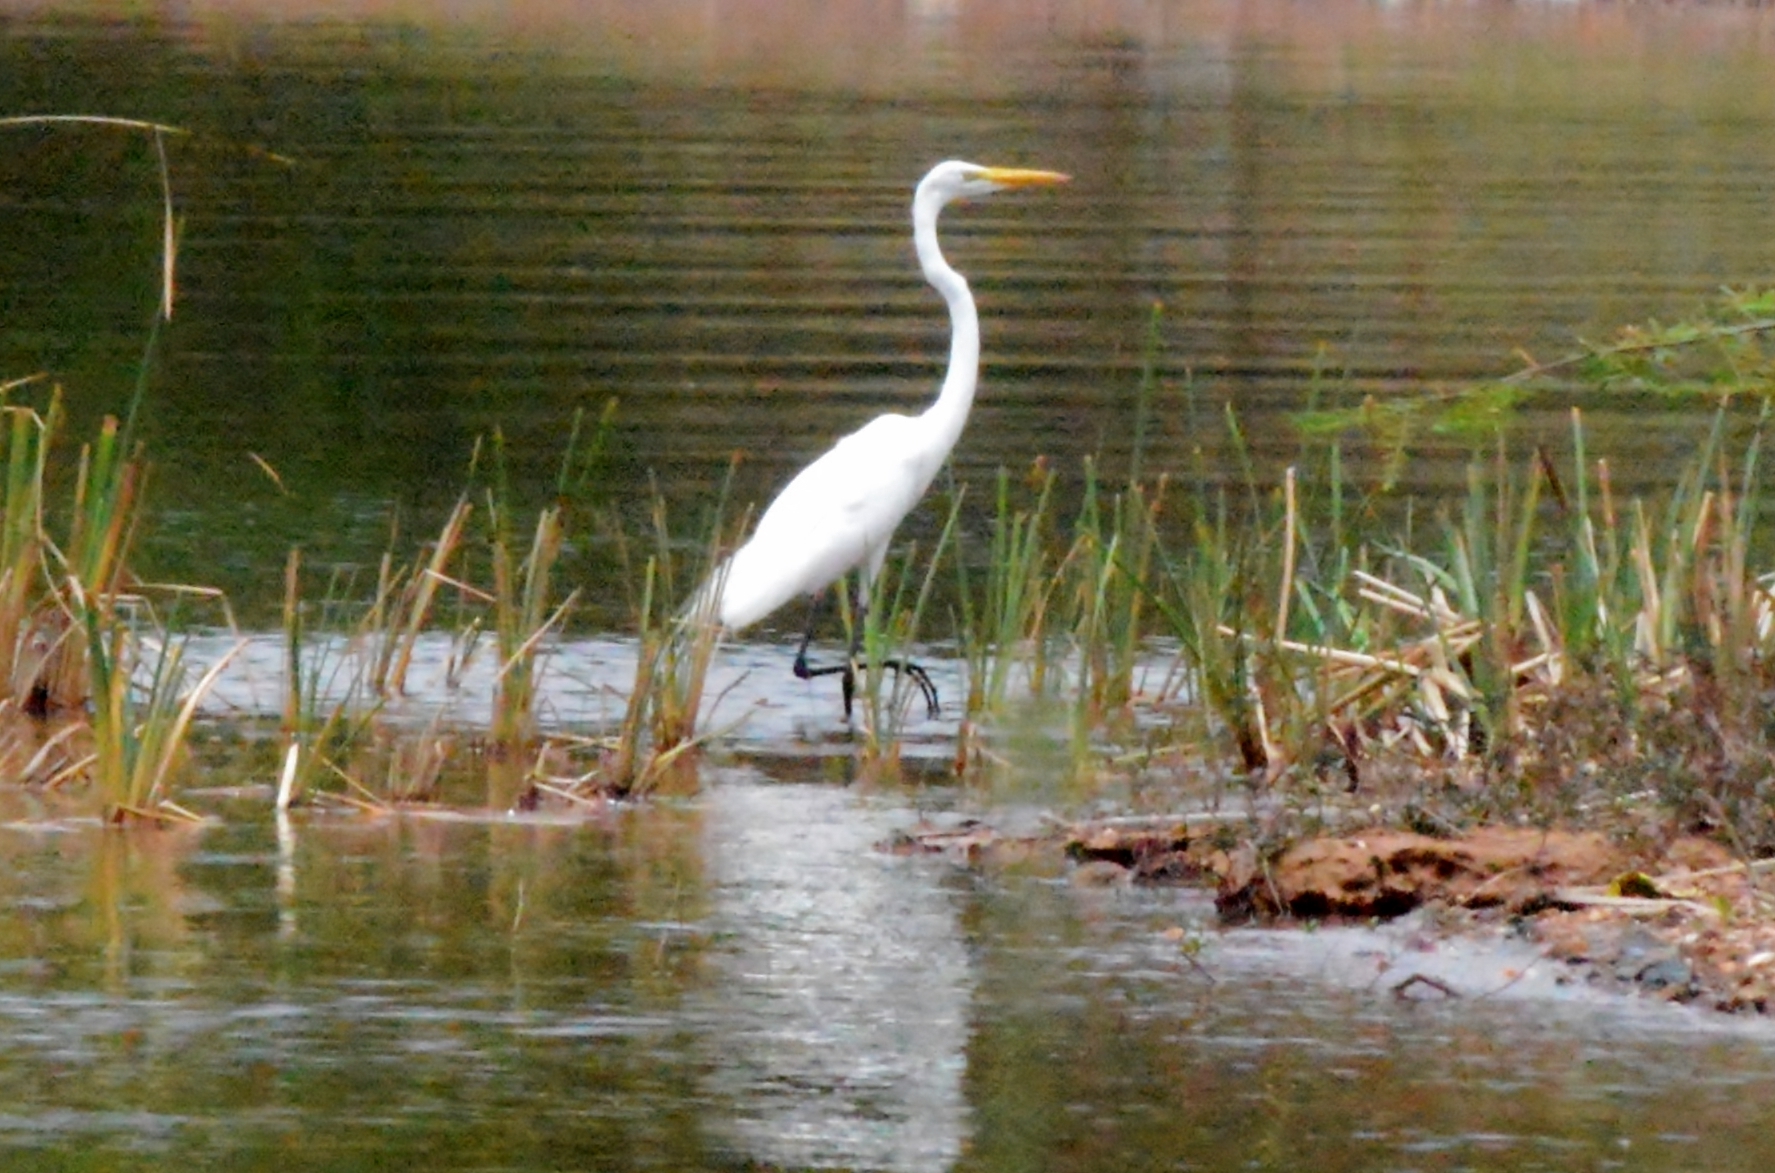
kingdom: Animalia
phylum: Chordata
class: Aves
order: Pelecaniformes
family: Ardeidae
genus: Ardea
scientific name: Ardea alba
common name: Great egret
